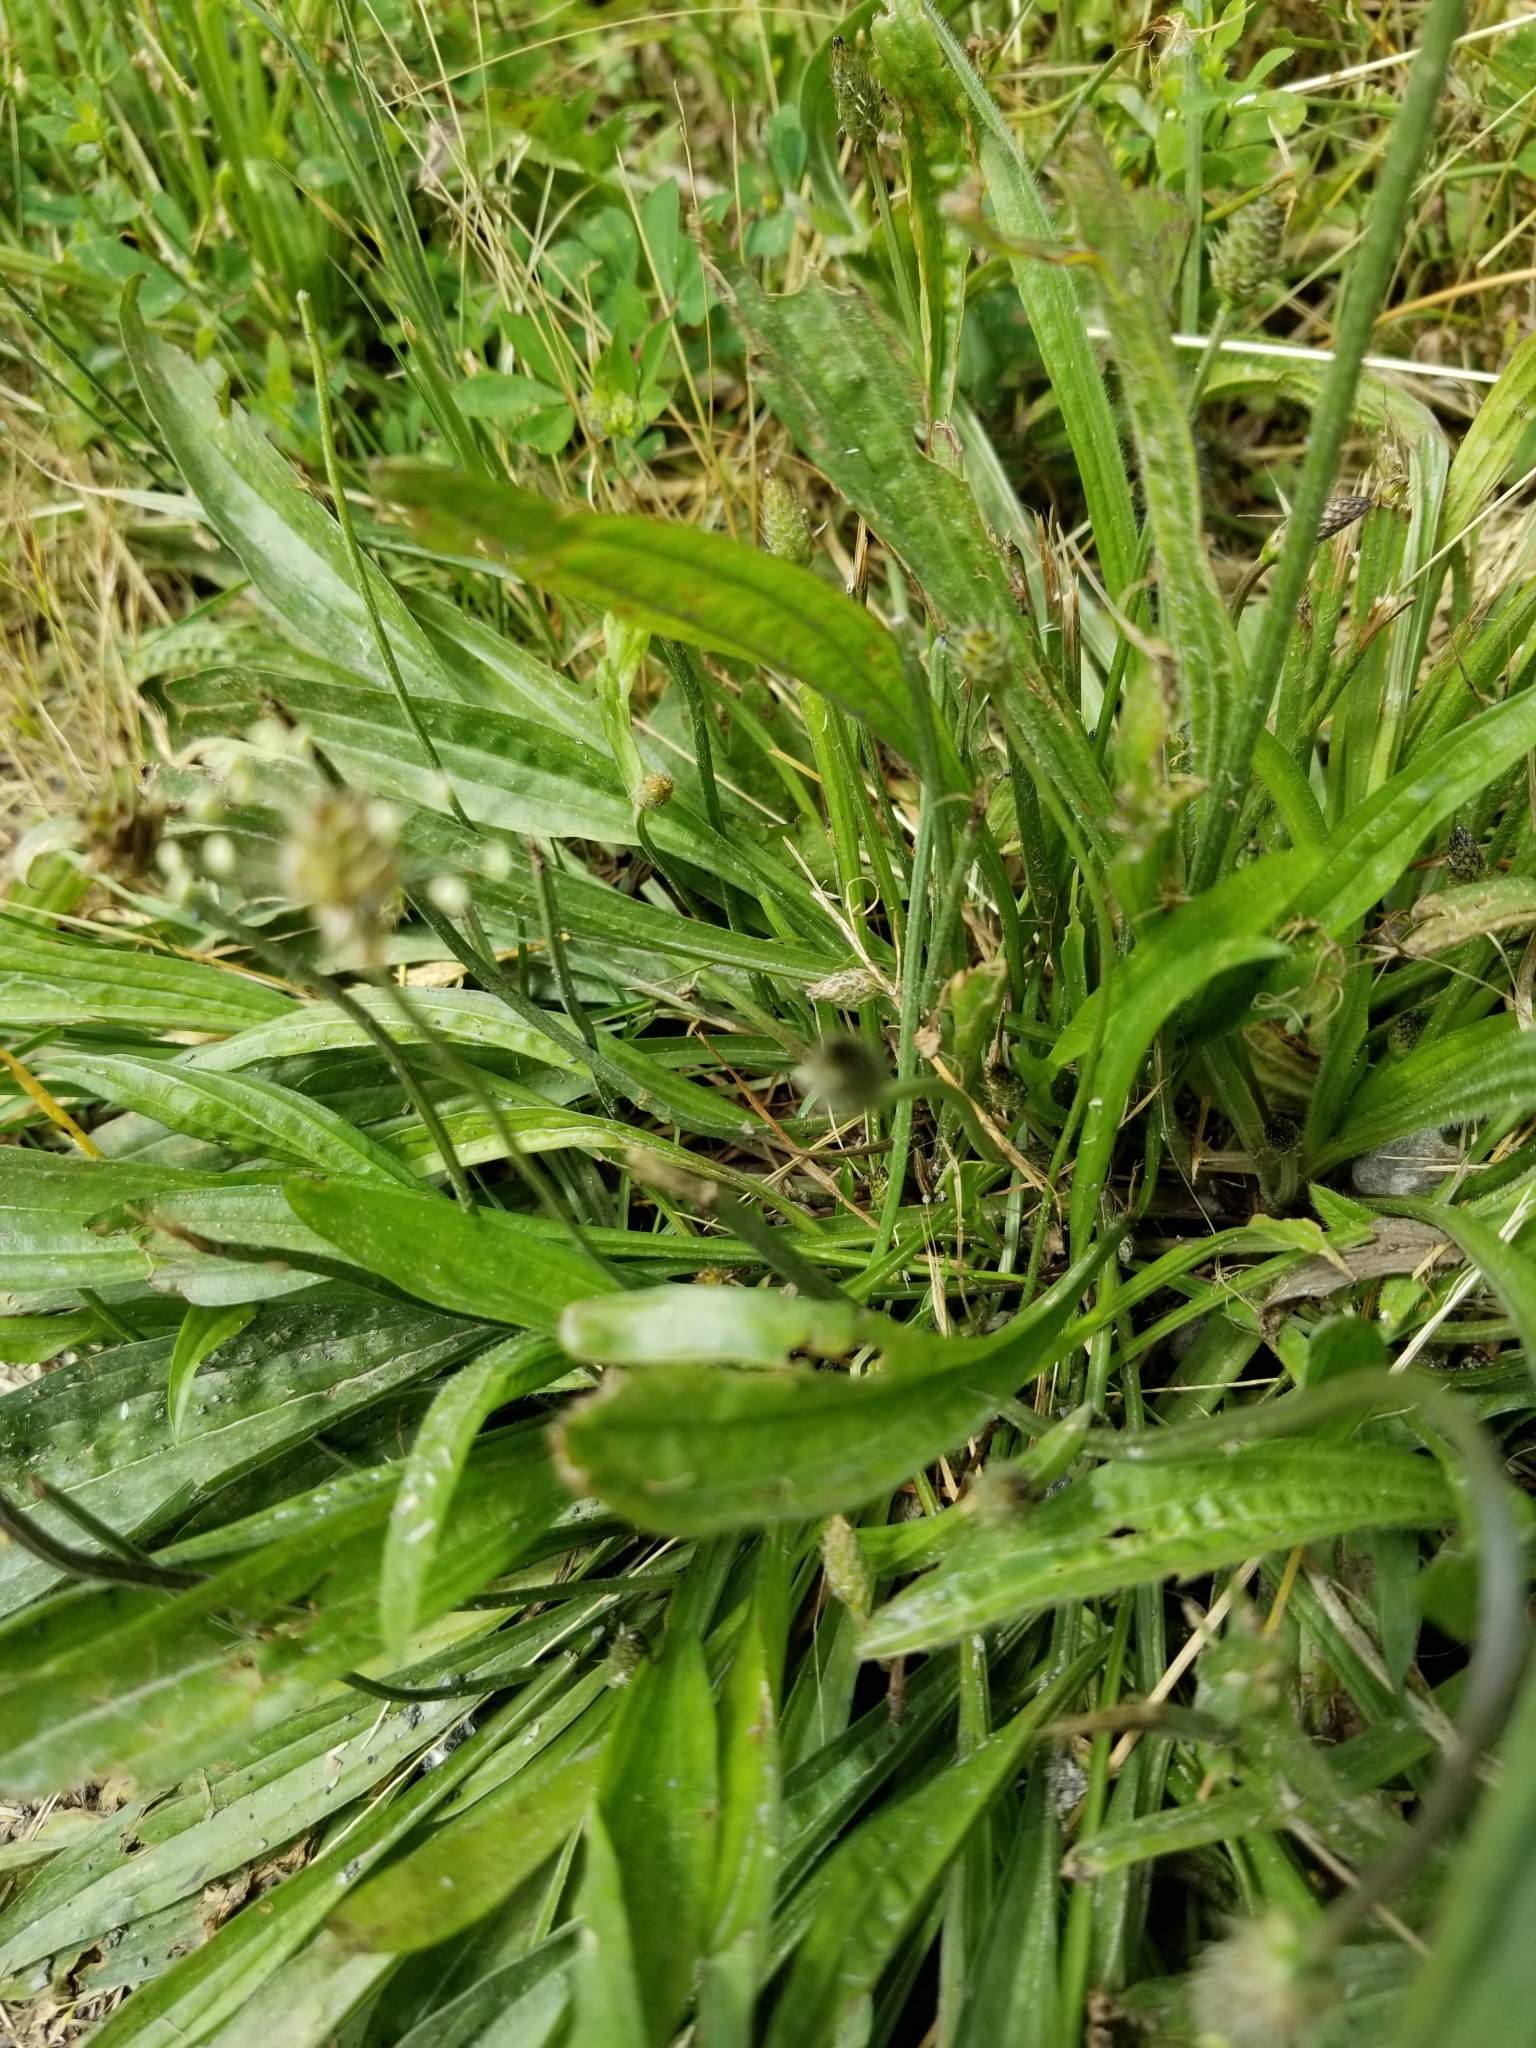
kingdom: Plantae
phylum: Tracheophyta
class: Magnoliopsida
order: Lamiales
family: Plantaginaceae
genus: Plantago
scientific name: Plantago lanceolata
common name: Ribwort plantain
